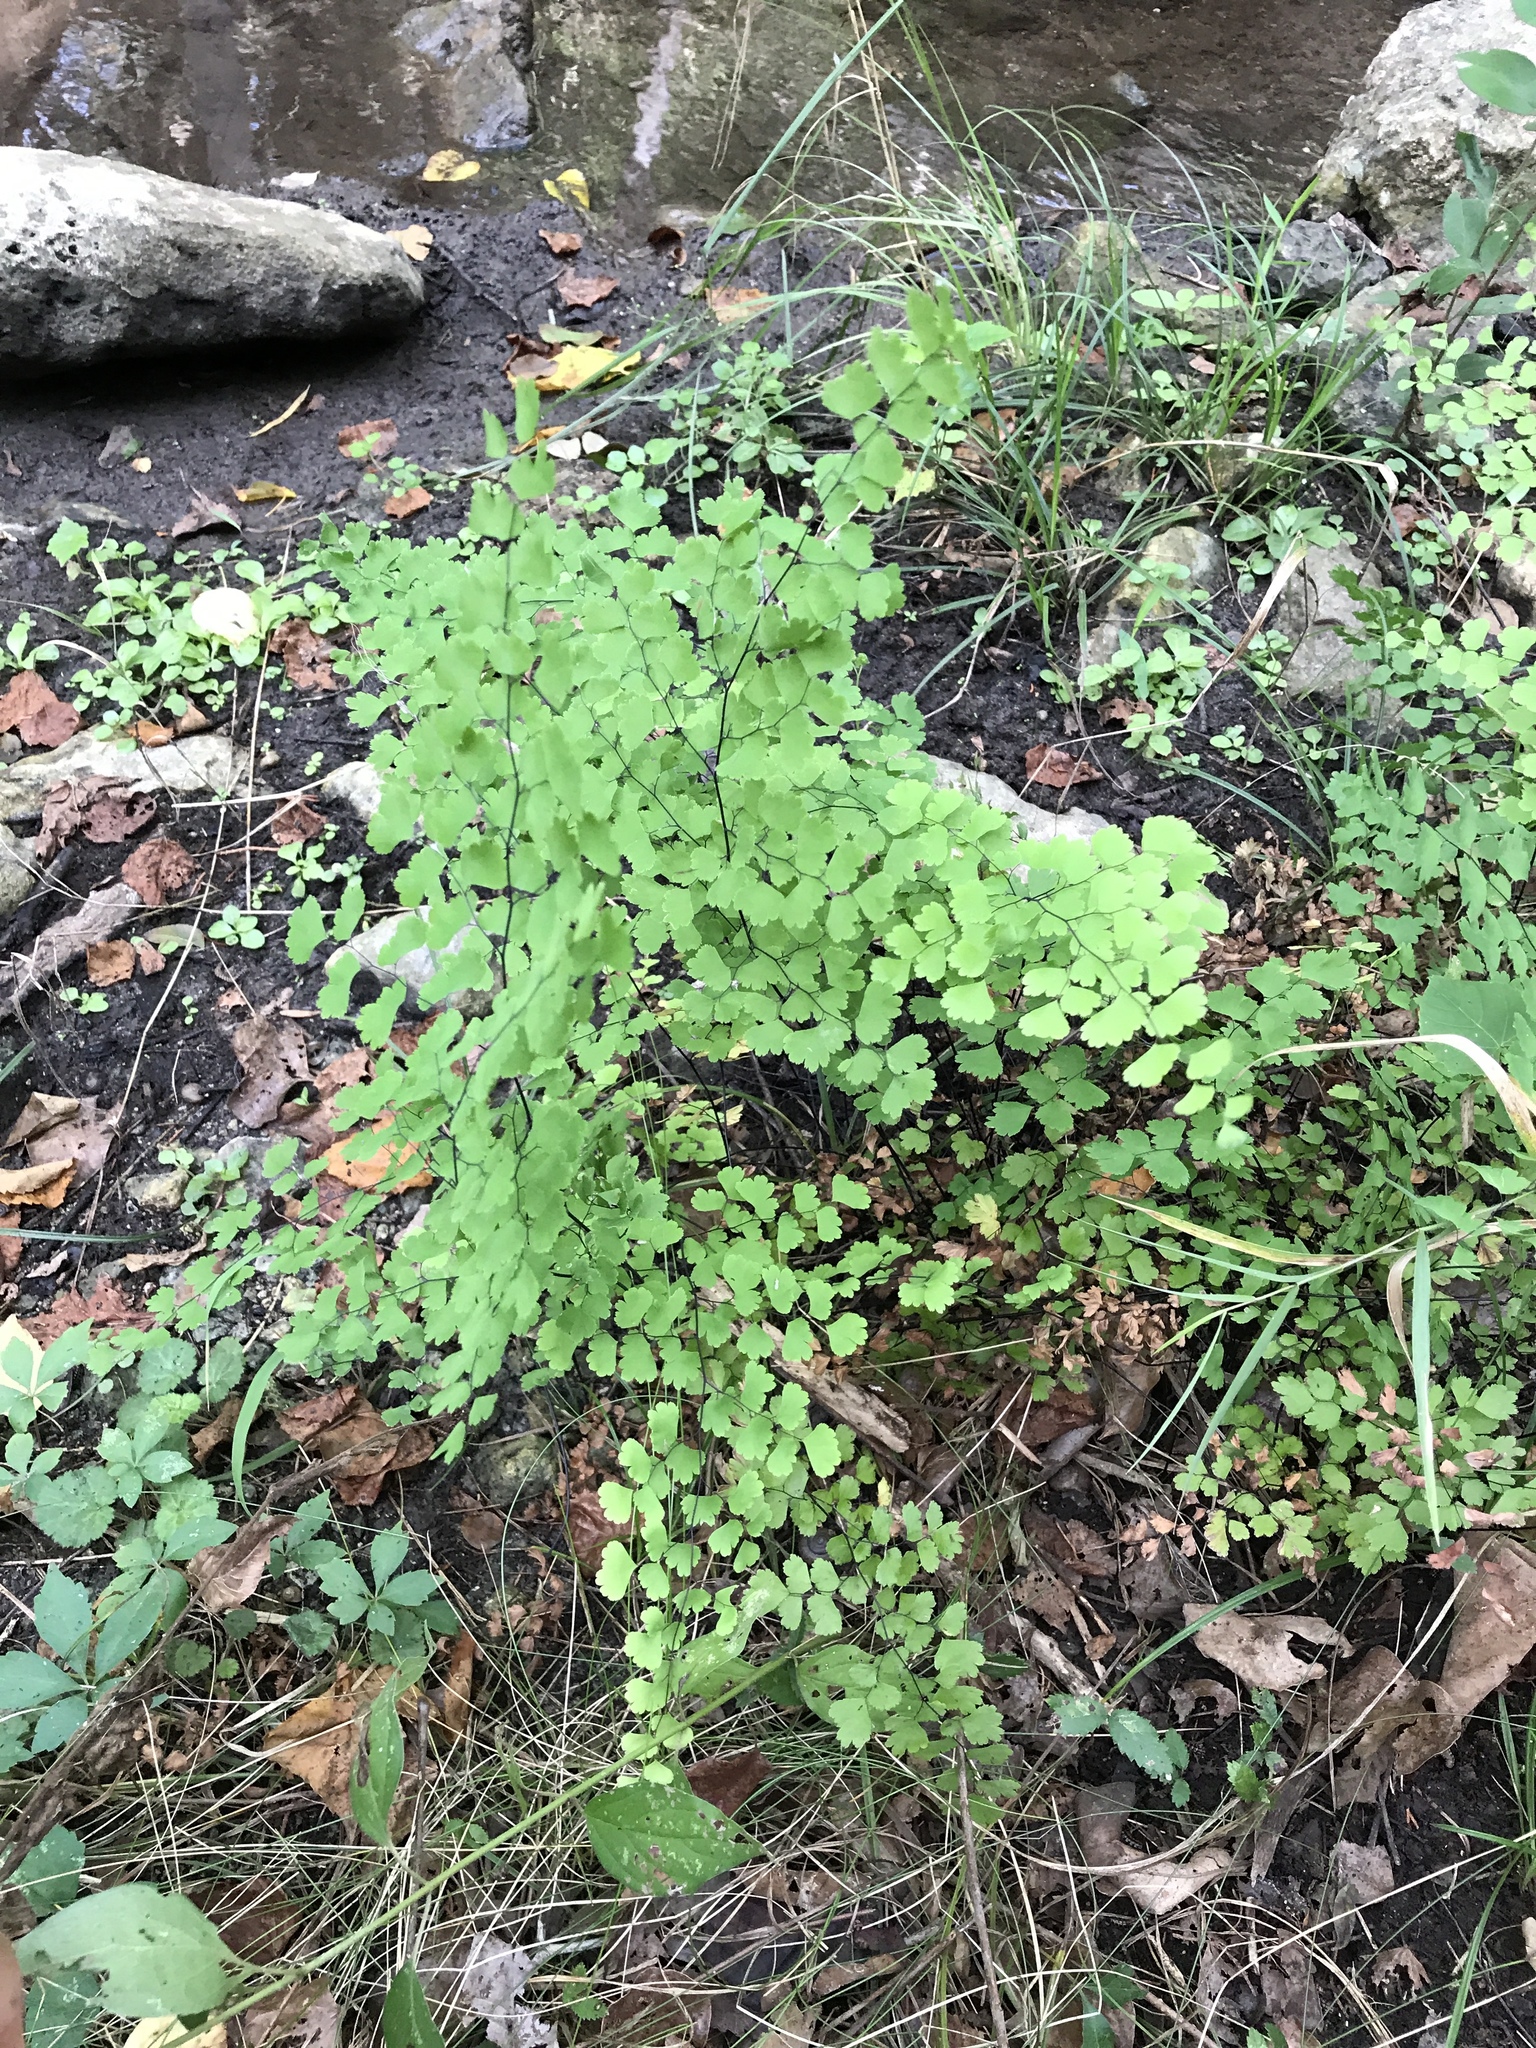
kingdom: Plantae
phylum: Tracheophyta
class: Polypodiopsida
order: Polypodiales
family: Pteridaceae
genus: Adiantum
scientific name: Adiantum capillus-veneris
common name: Maidenhair fern
